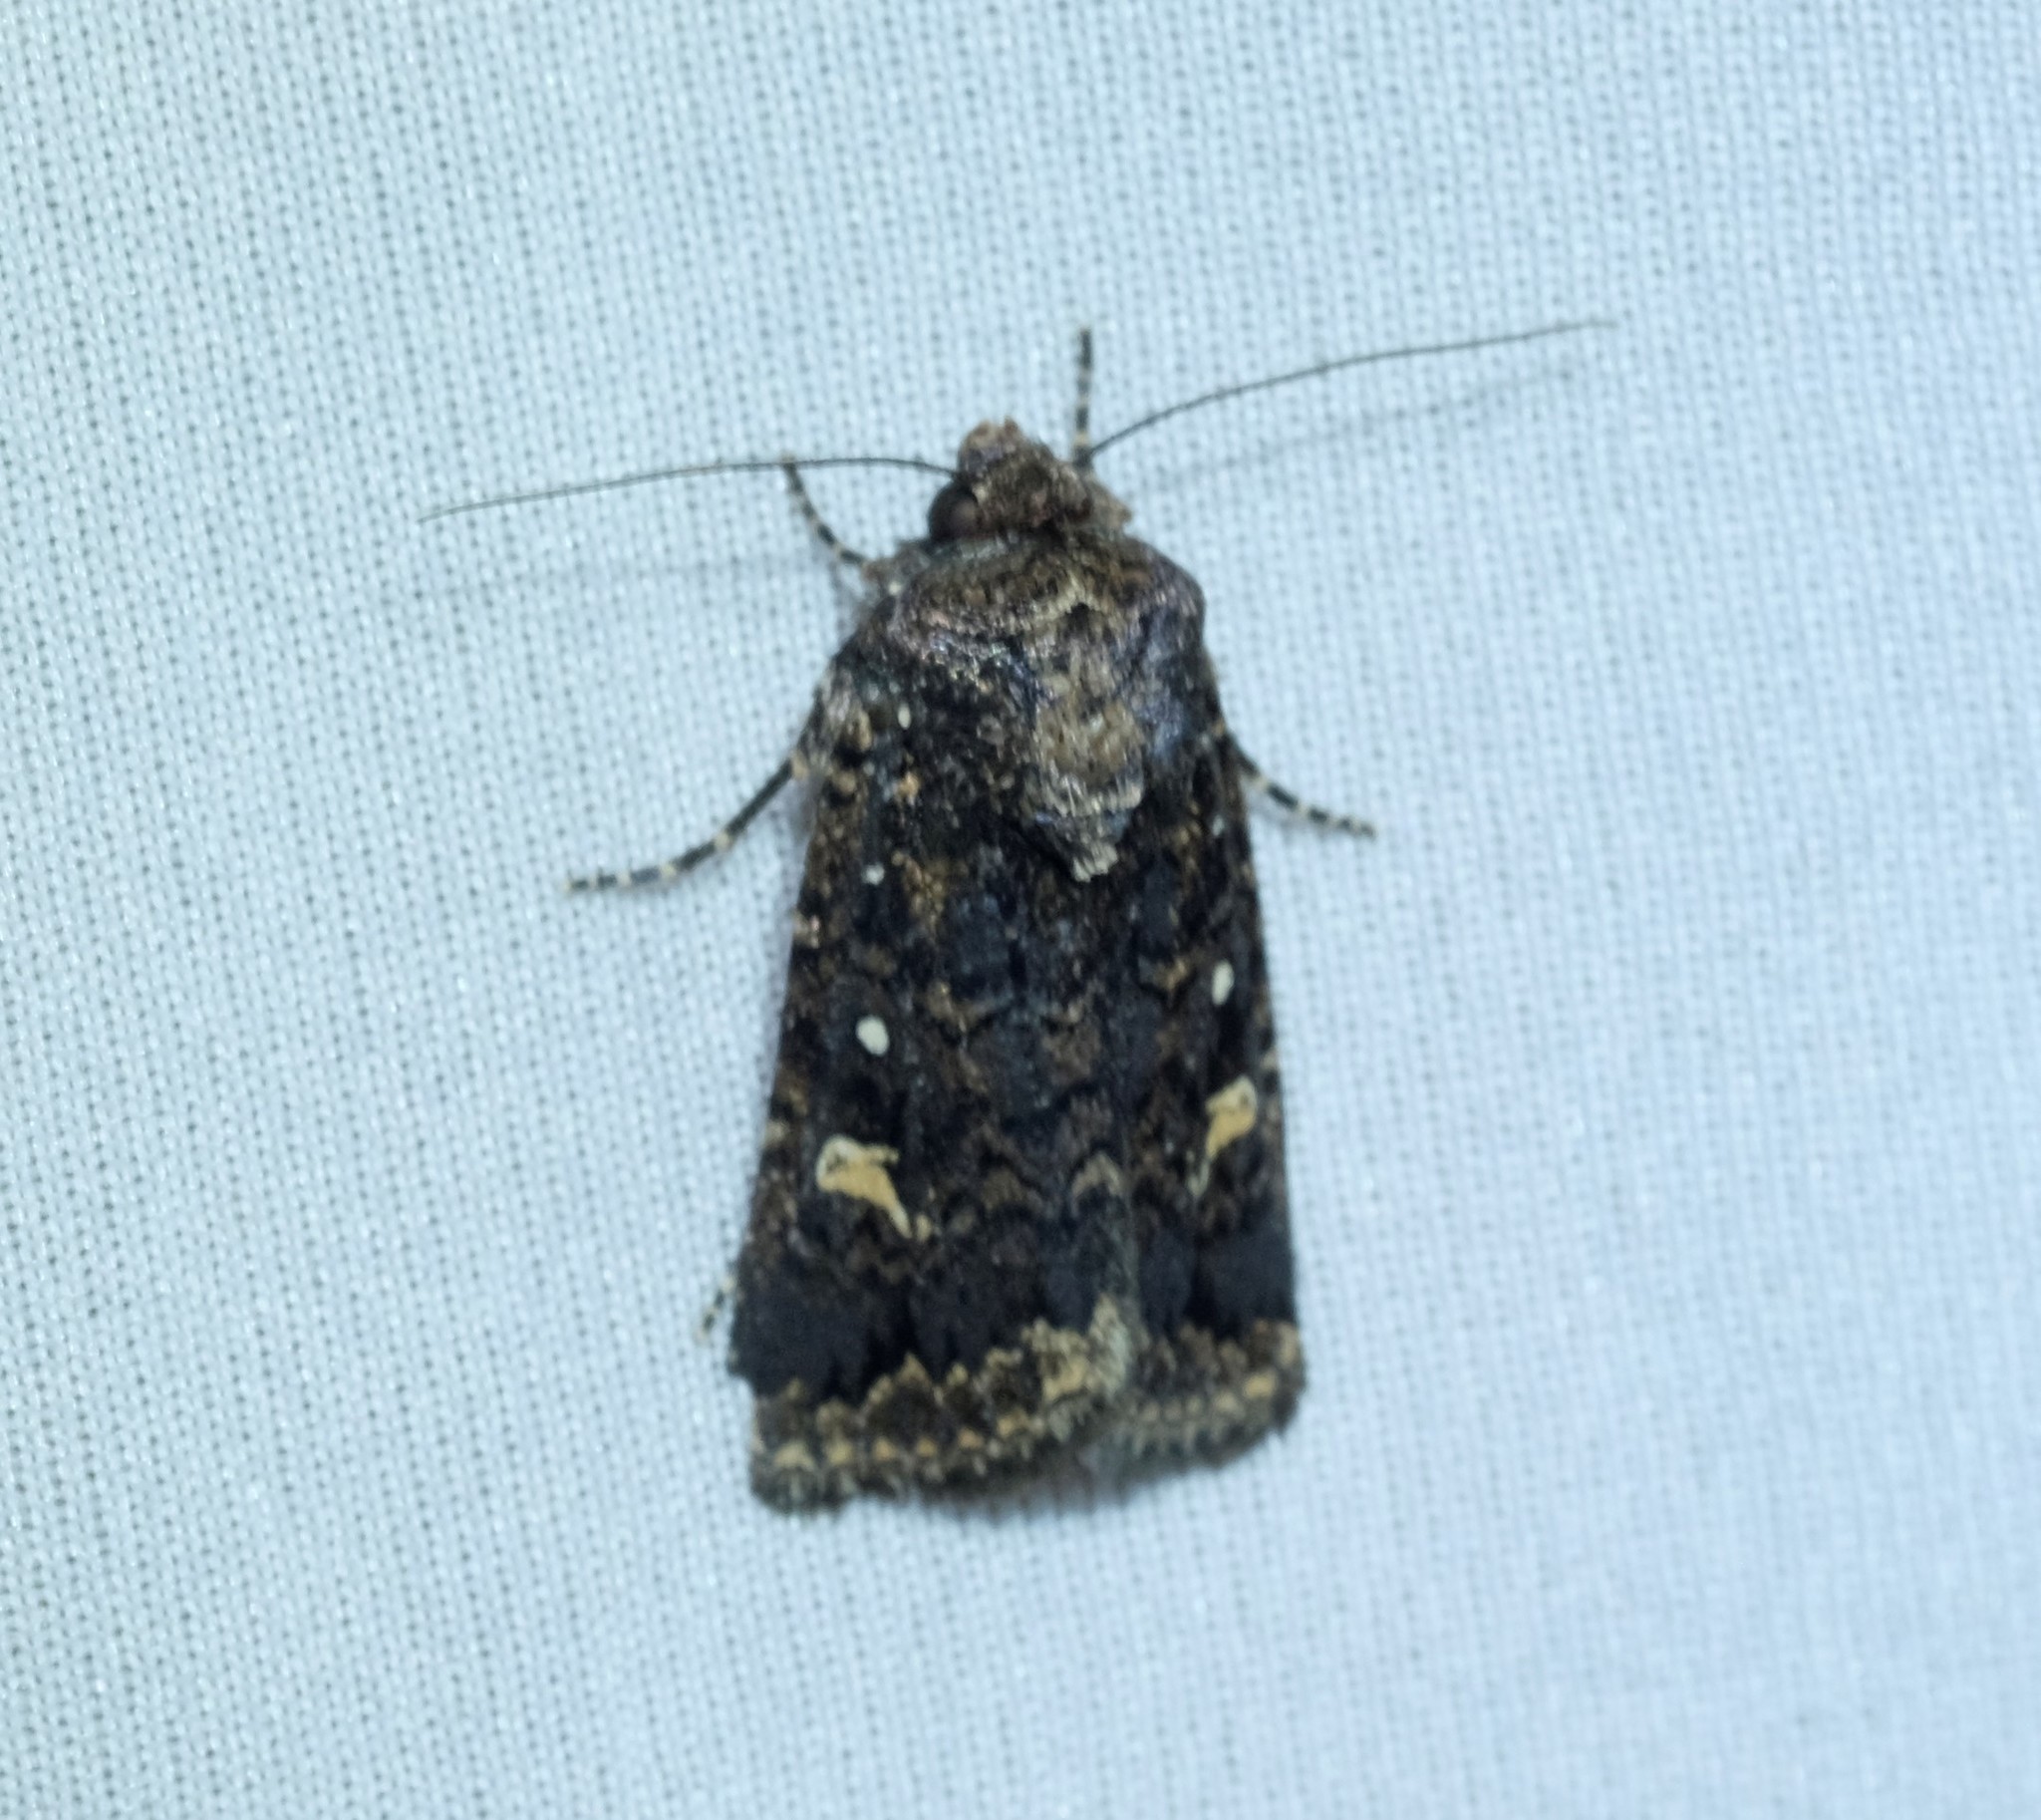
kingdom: Animalia
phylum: Arthropoda
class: Insecta
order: Lepidoptera
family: Noctuidae
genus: Proteuxoa
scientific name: Proteuxoa marginalis
